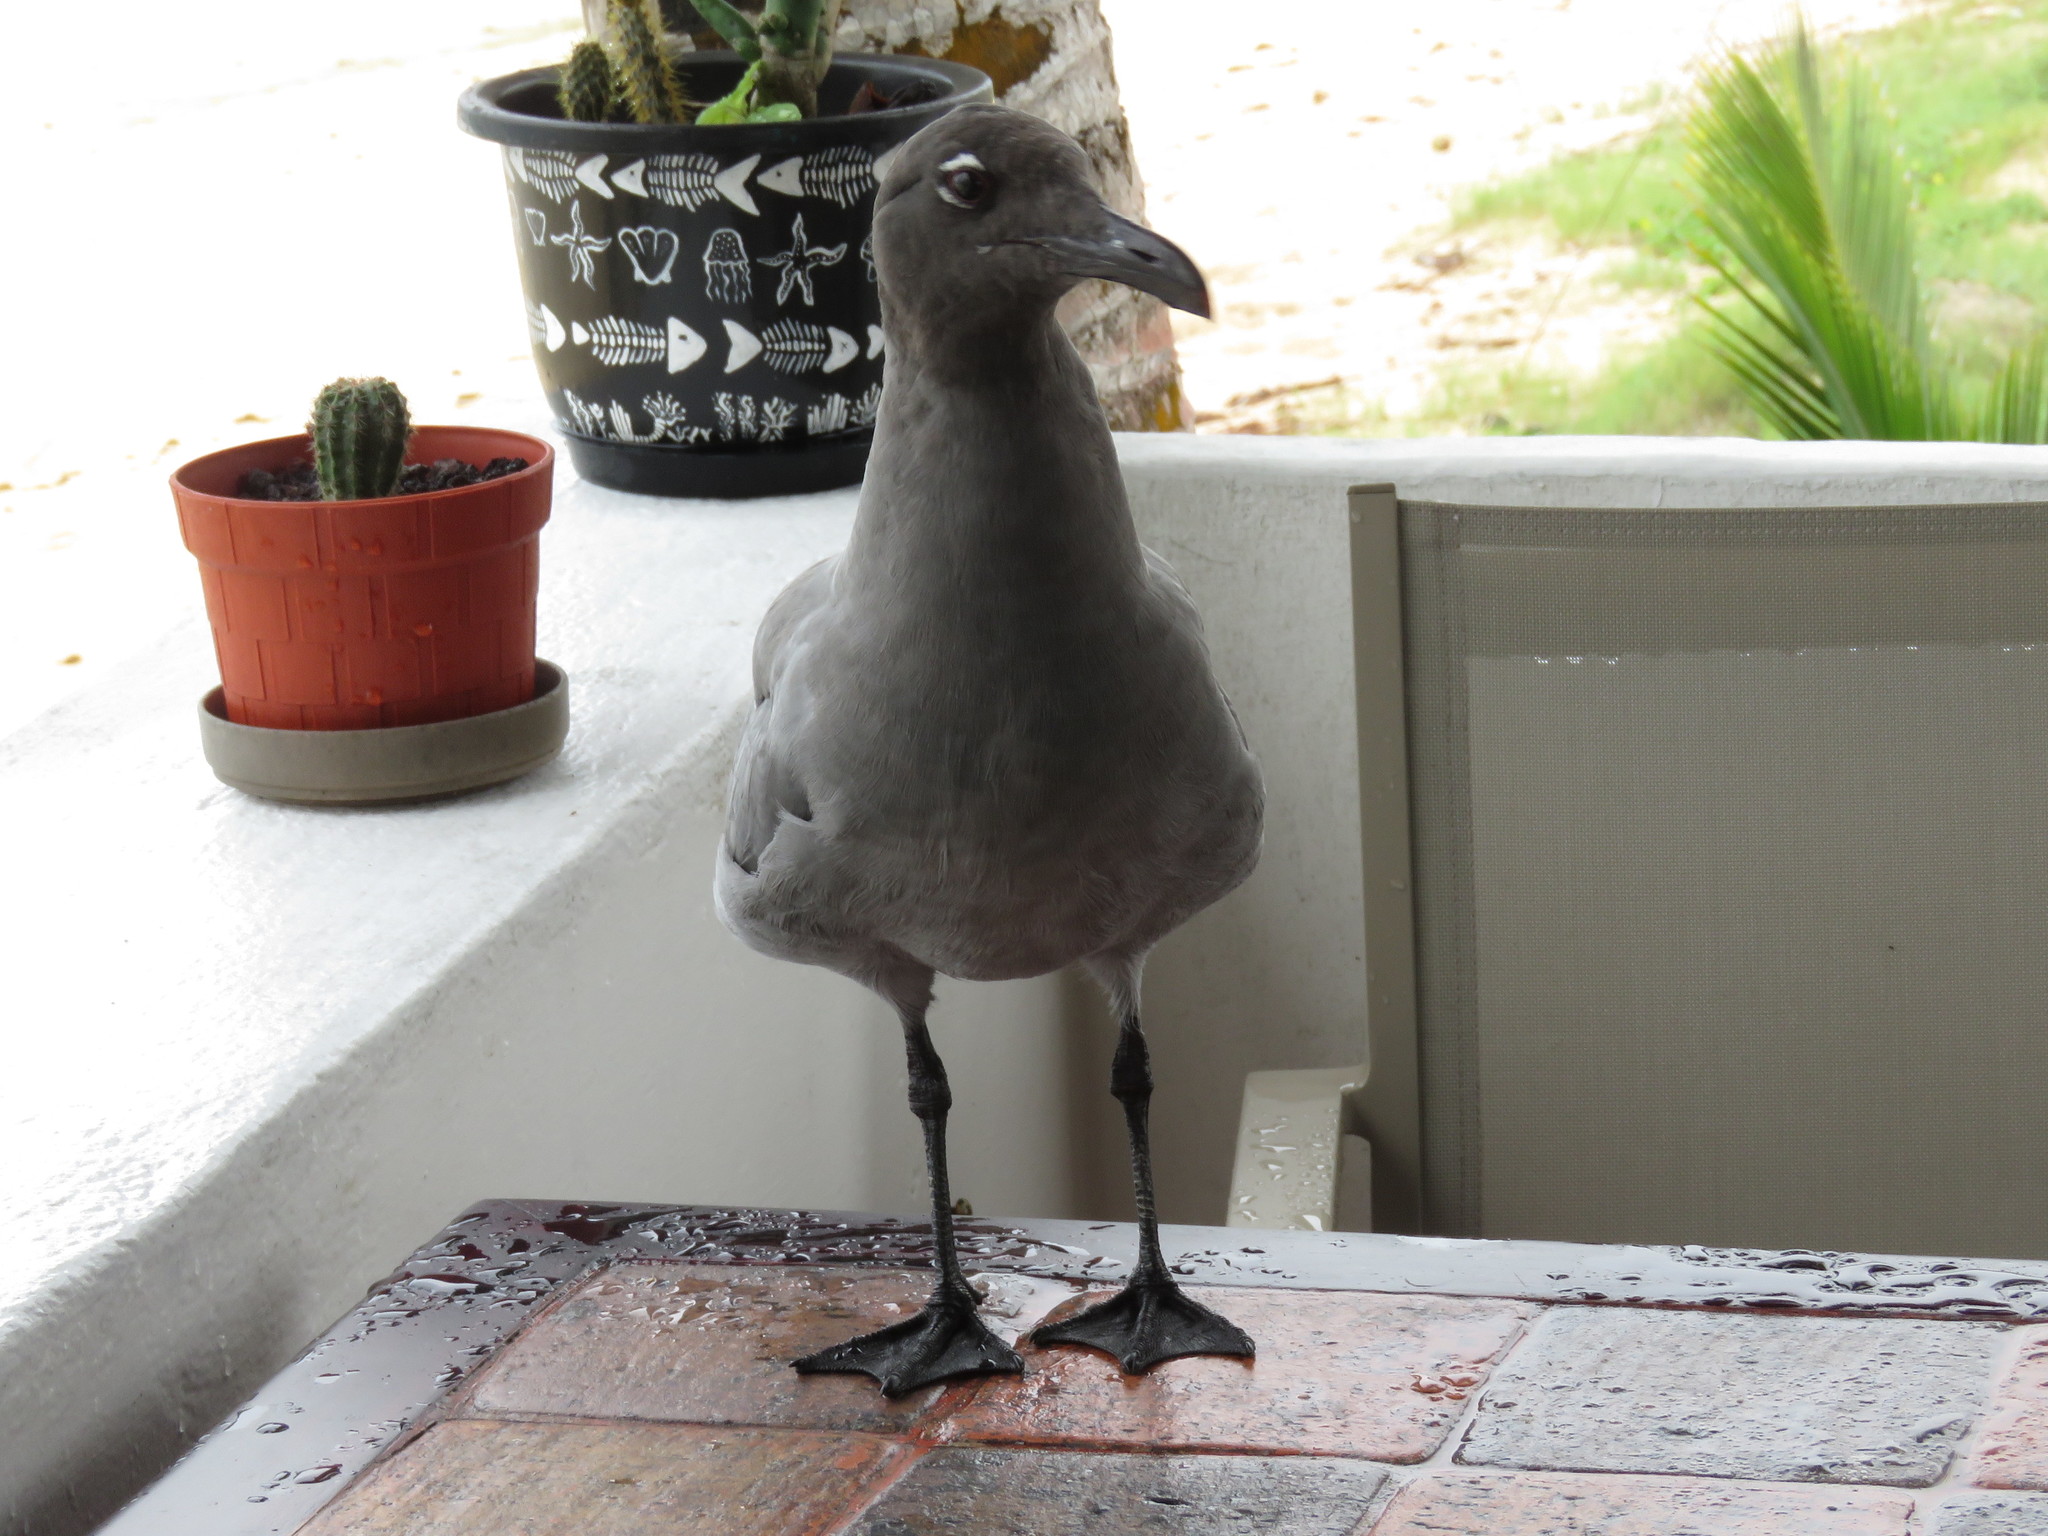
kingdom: Animalia
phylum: Chordata
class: Aves
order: Charadriiformes
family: Laridae
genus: Leucophaeus
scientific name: Leucophaeus fuliginosus
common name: Lava gull
